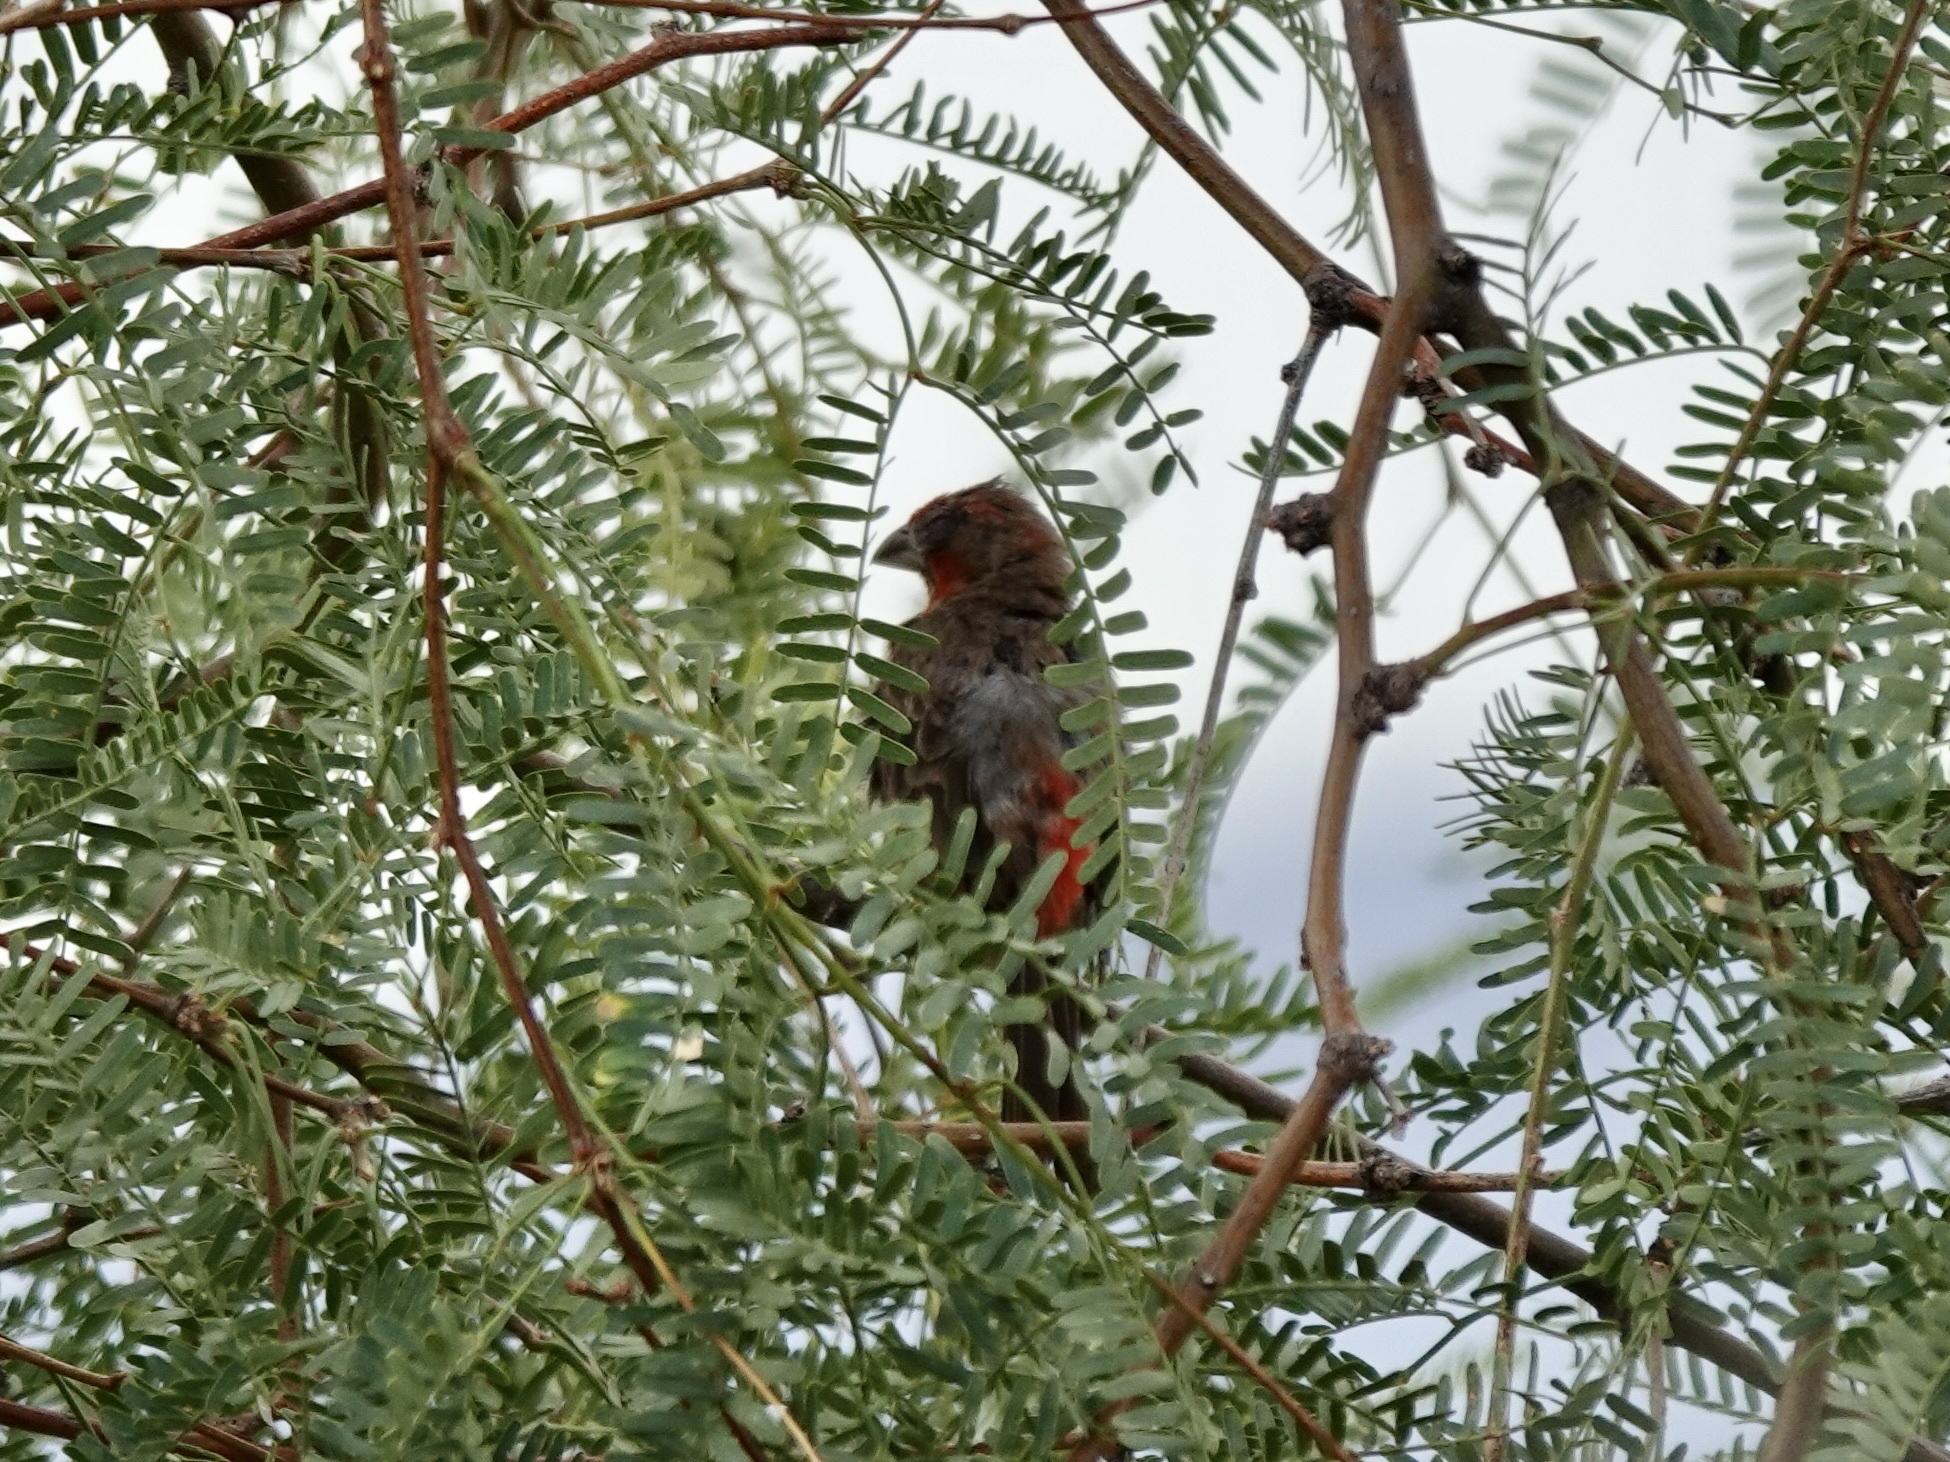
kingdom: Animalia
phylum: Chordata
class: Aves
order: Passeriformes
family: Fringillidae
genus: Haemorhous
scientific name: Haemorhous mexicanus
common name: House finch
